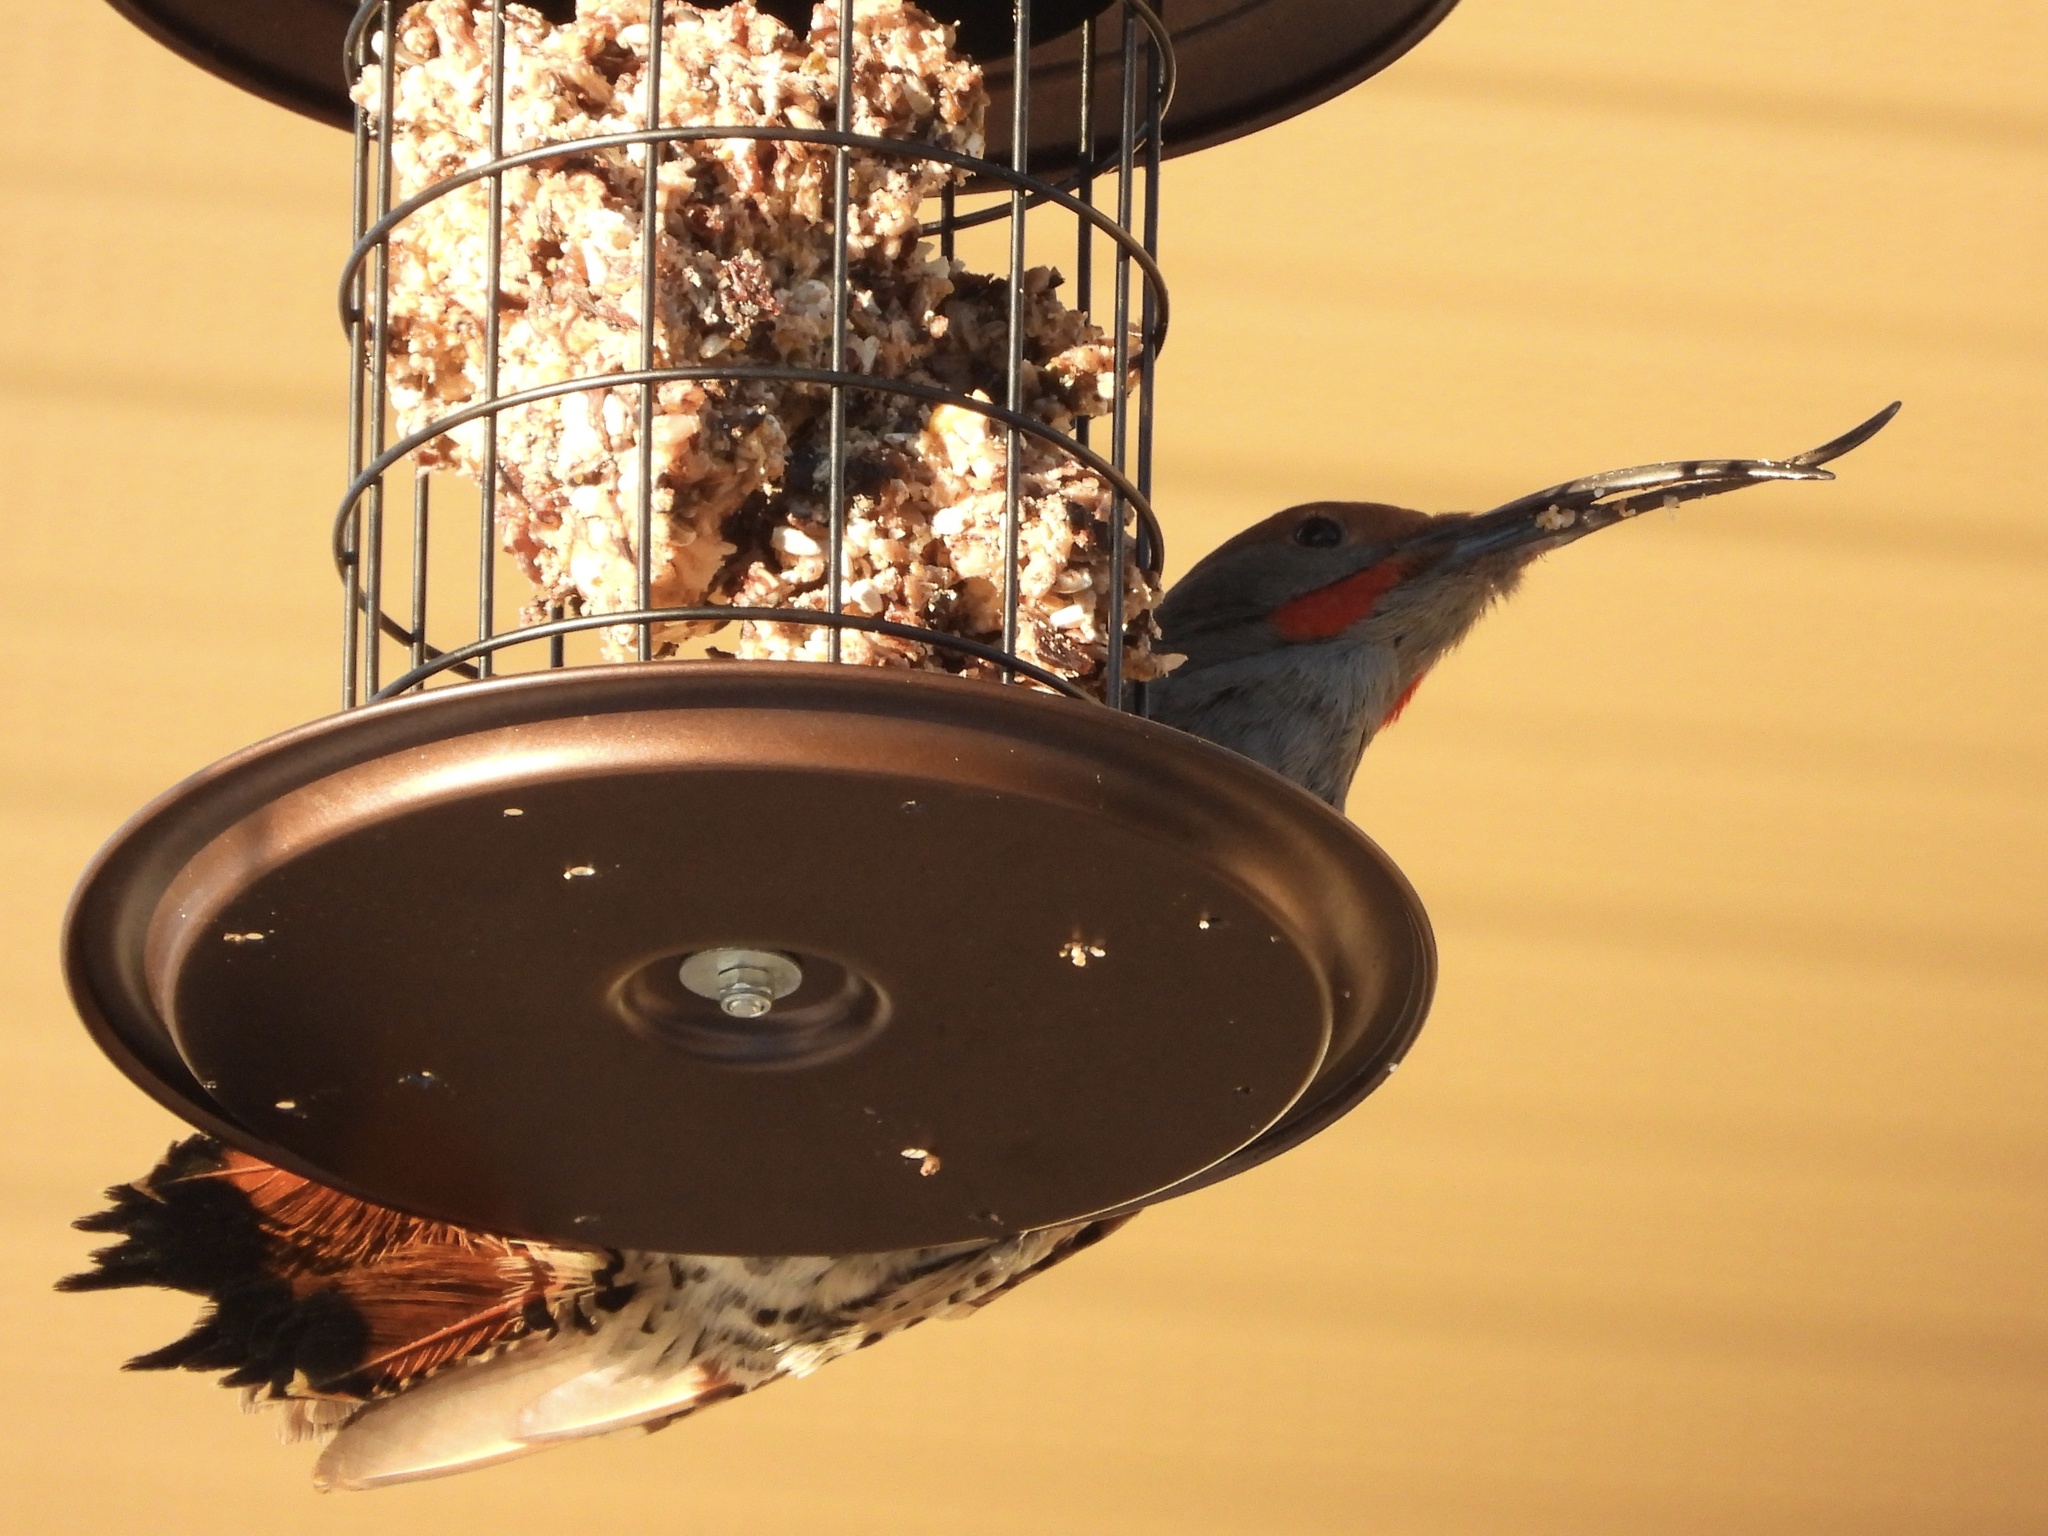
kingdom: Animalia
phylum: Chordata
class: Aves
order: Piciformes
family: Picidae
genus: Colaptes
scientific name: Colaptes auratus
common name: Northern flicker
